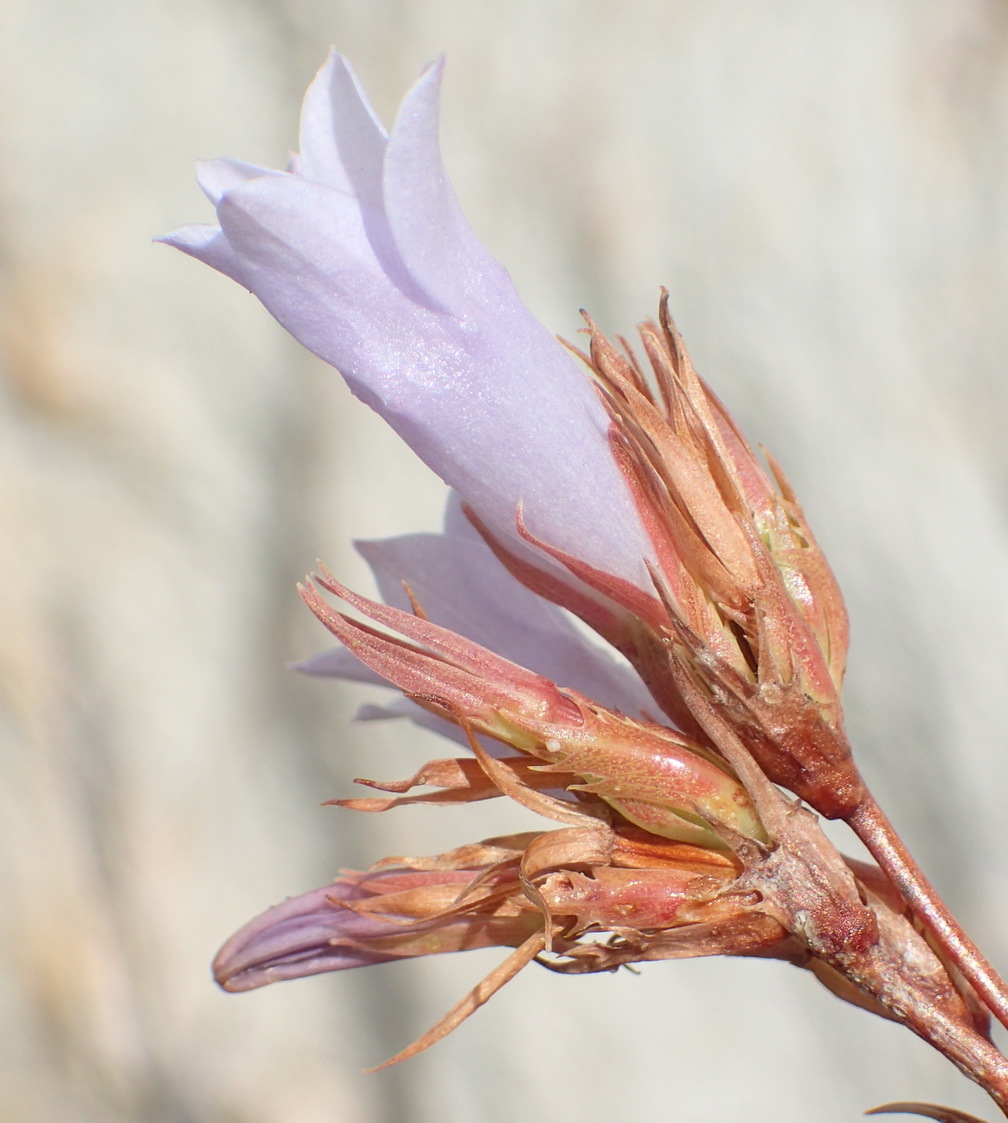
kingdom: Plantae
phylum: Tracheophyta
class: Magnoliopsida
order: Asterales
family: Campanulaceae
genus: Prismatocarpus
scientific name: Prismatocarpus candolleanus
